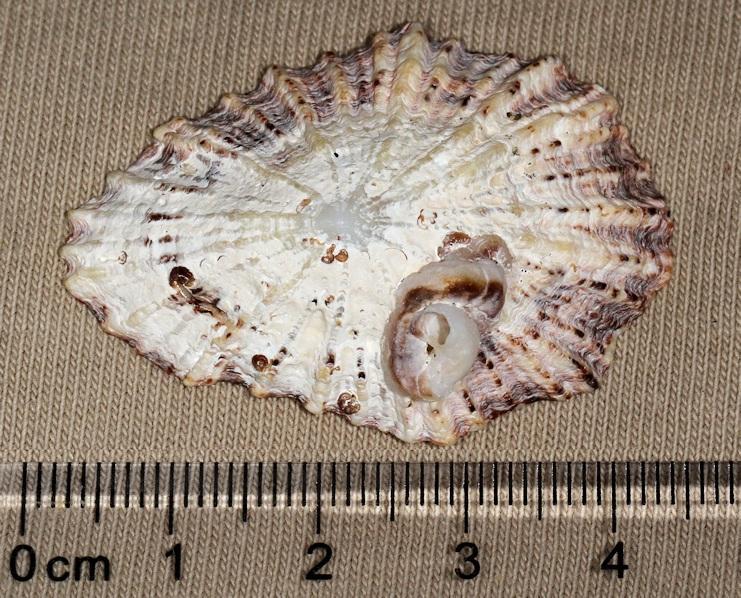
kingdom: Animalia
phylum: Mollusca
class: Gastropoda
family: Patellidae
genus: Scutellastra
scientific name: Scutellastra exusta
